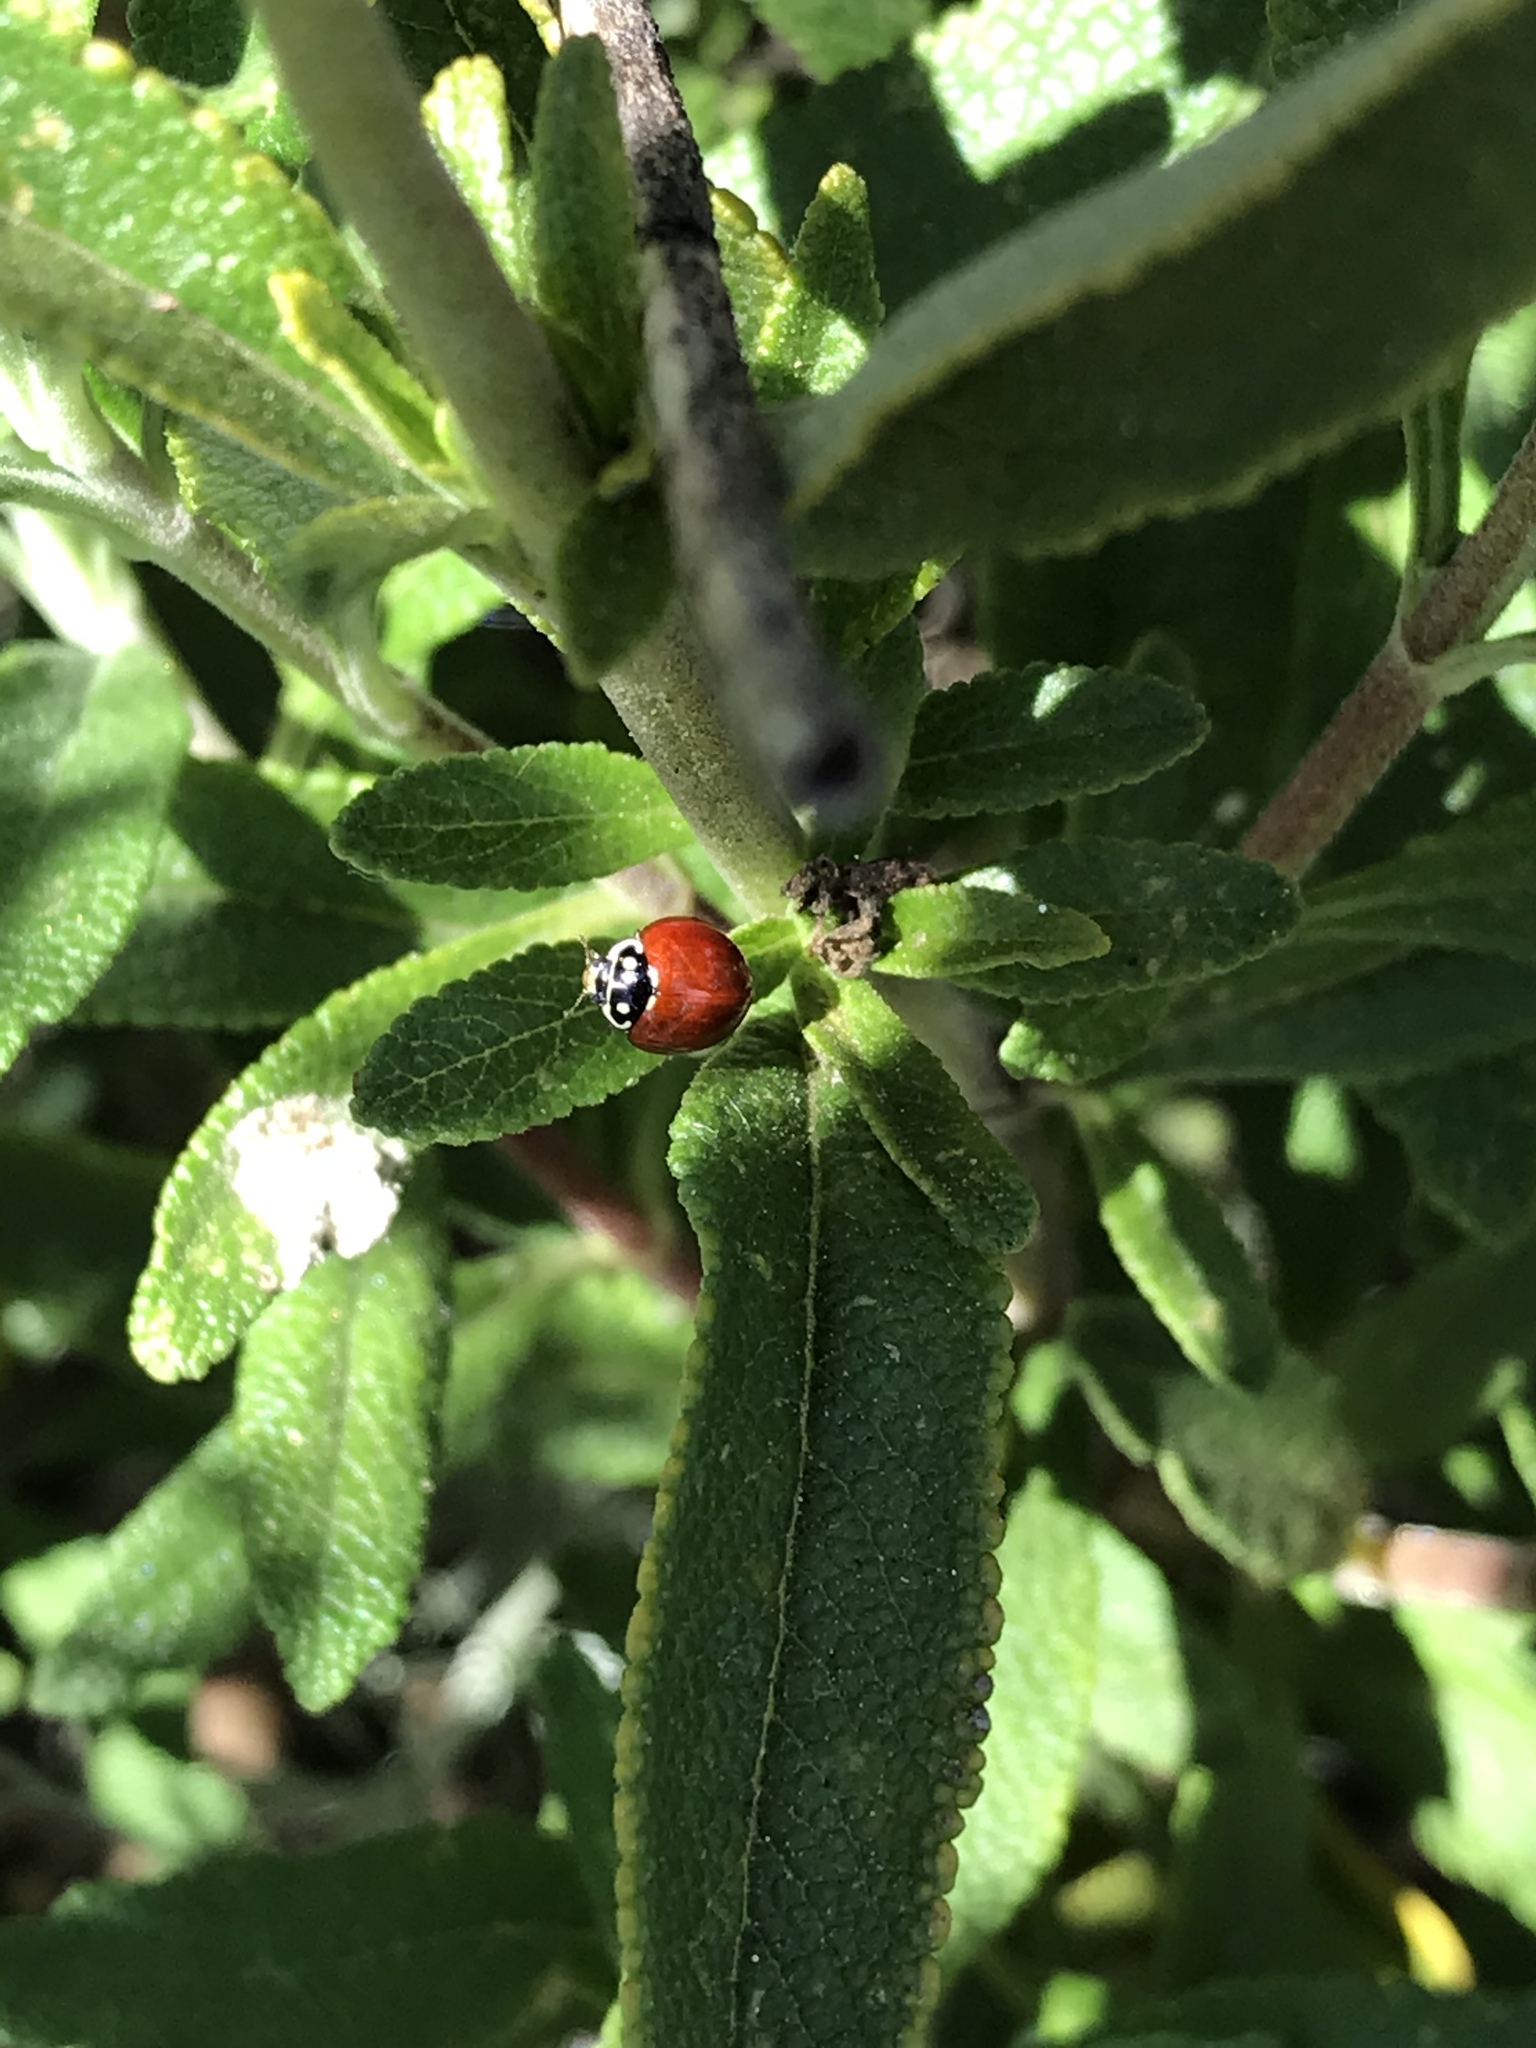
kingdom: Animalia
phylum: Arthropoda
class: Insecta
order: Coleoptera
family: Coccinellidae
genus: Cycloneda
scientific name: Cycloneda sanguinea
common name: Ladybird beetle
